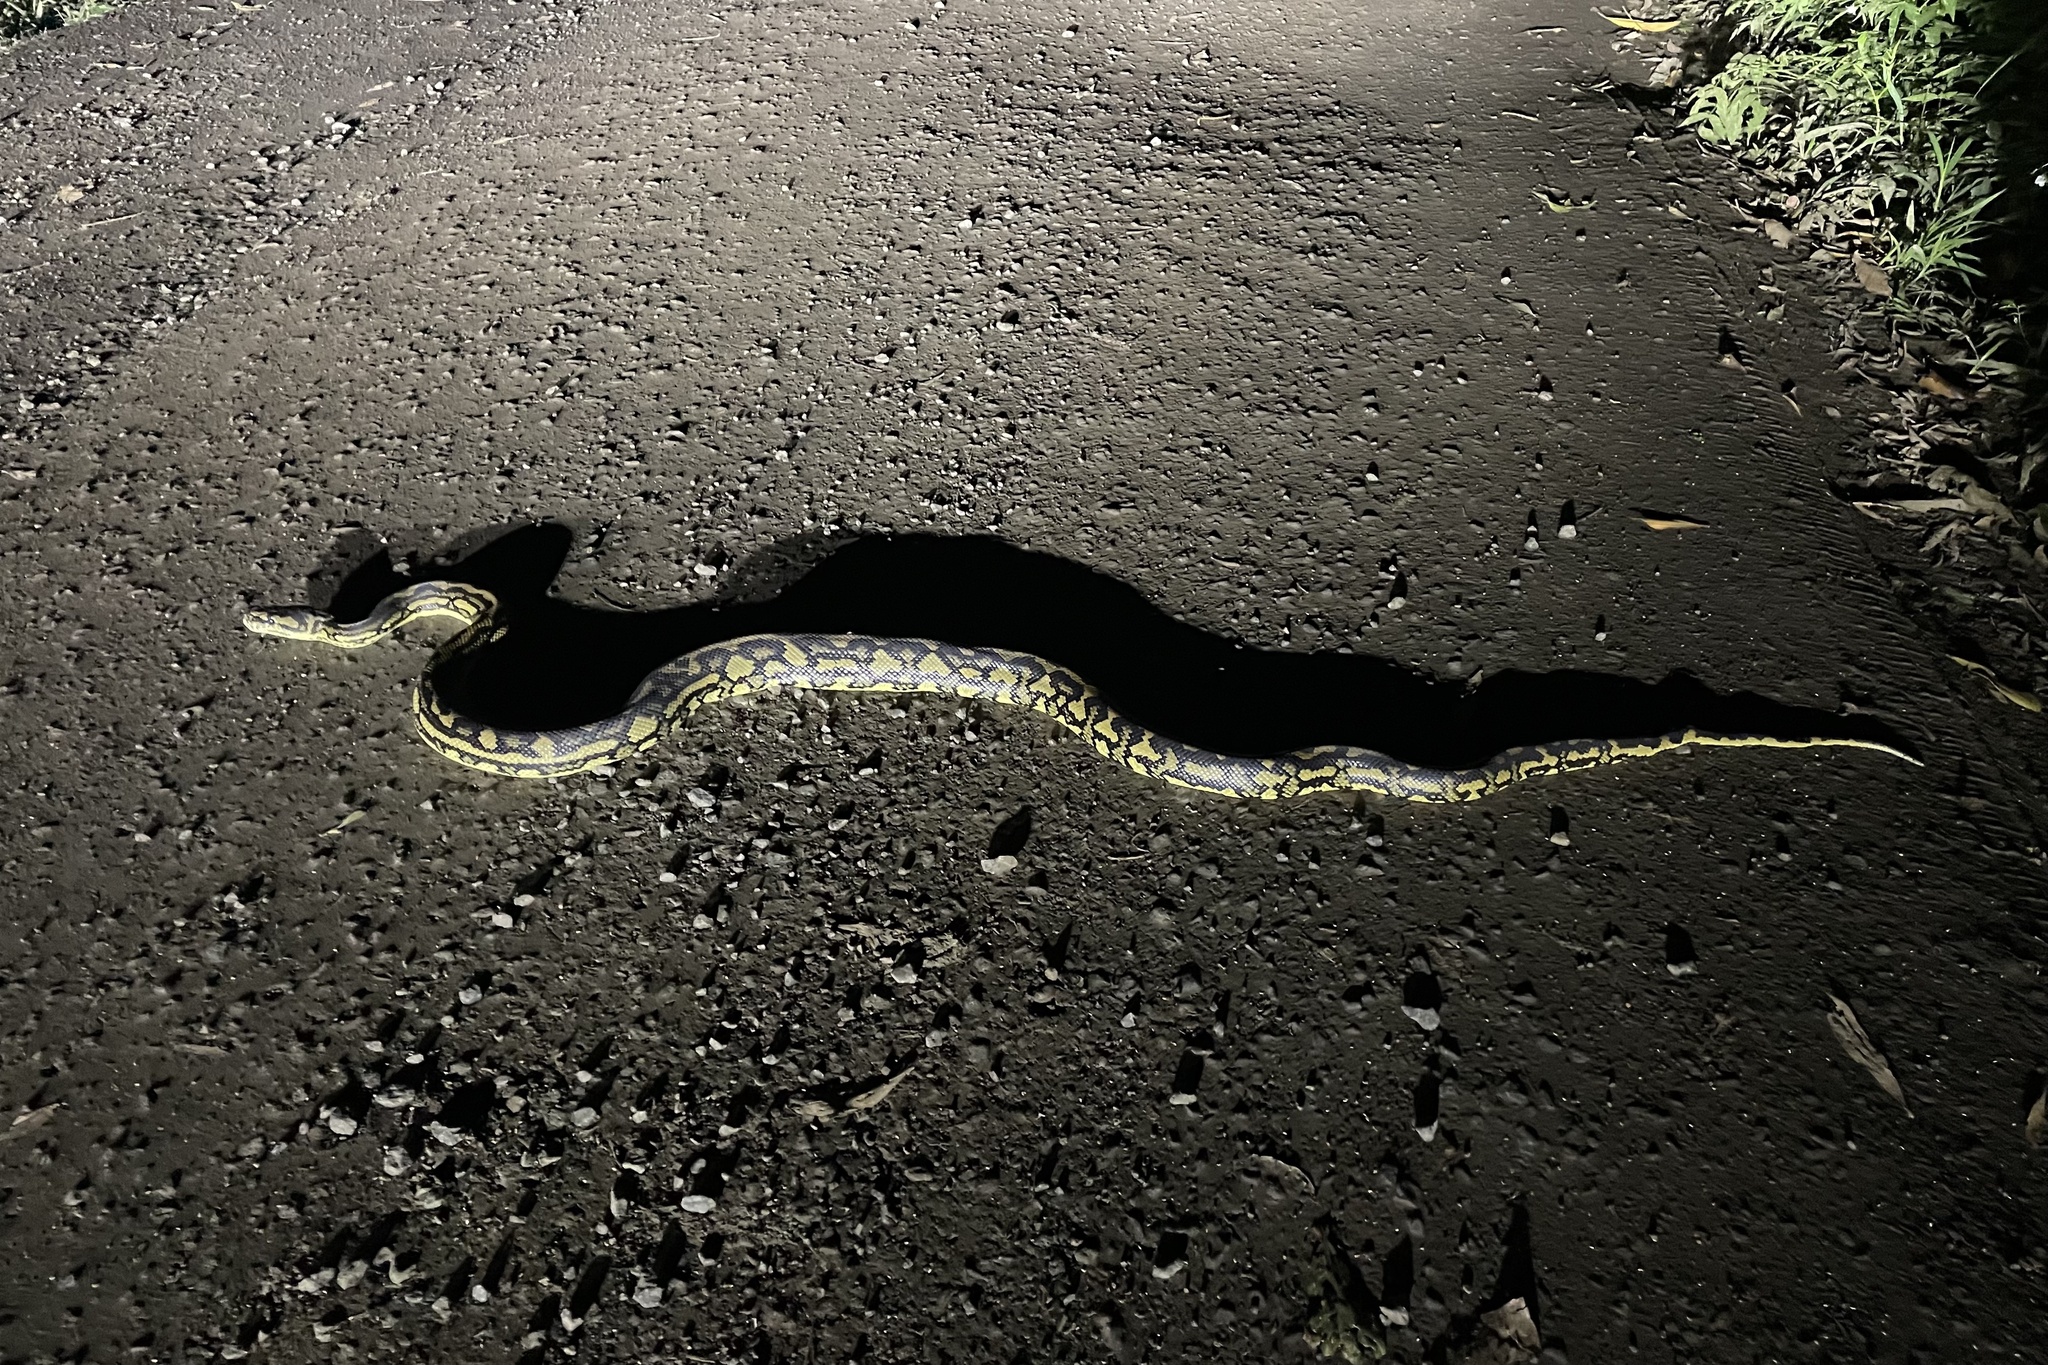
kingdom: Animalia
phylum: Chordata
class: Squamata
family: Pythonidae
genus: Morelia
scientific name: Morelia spilota
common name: Carpet python
